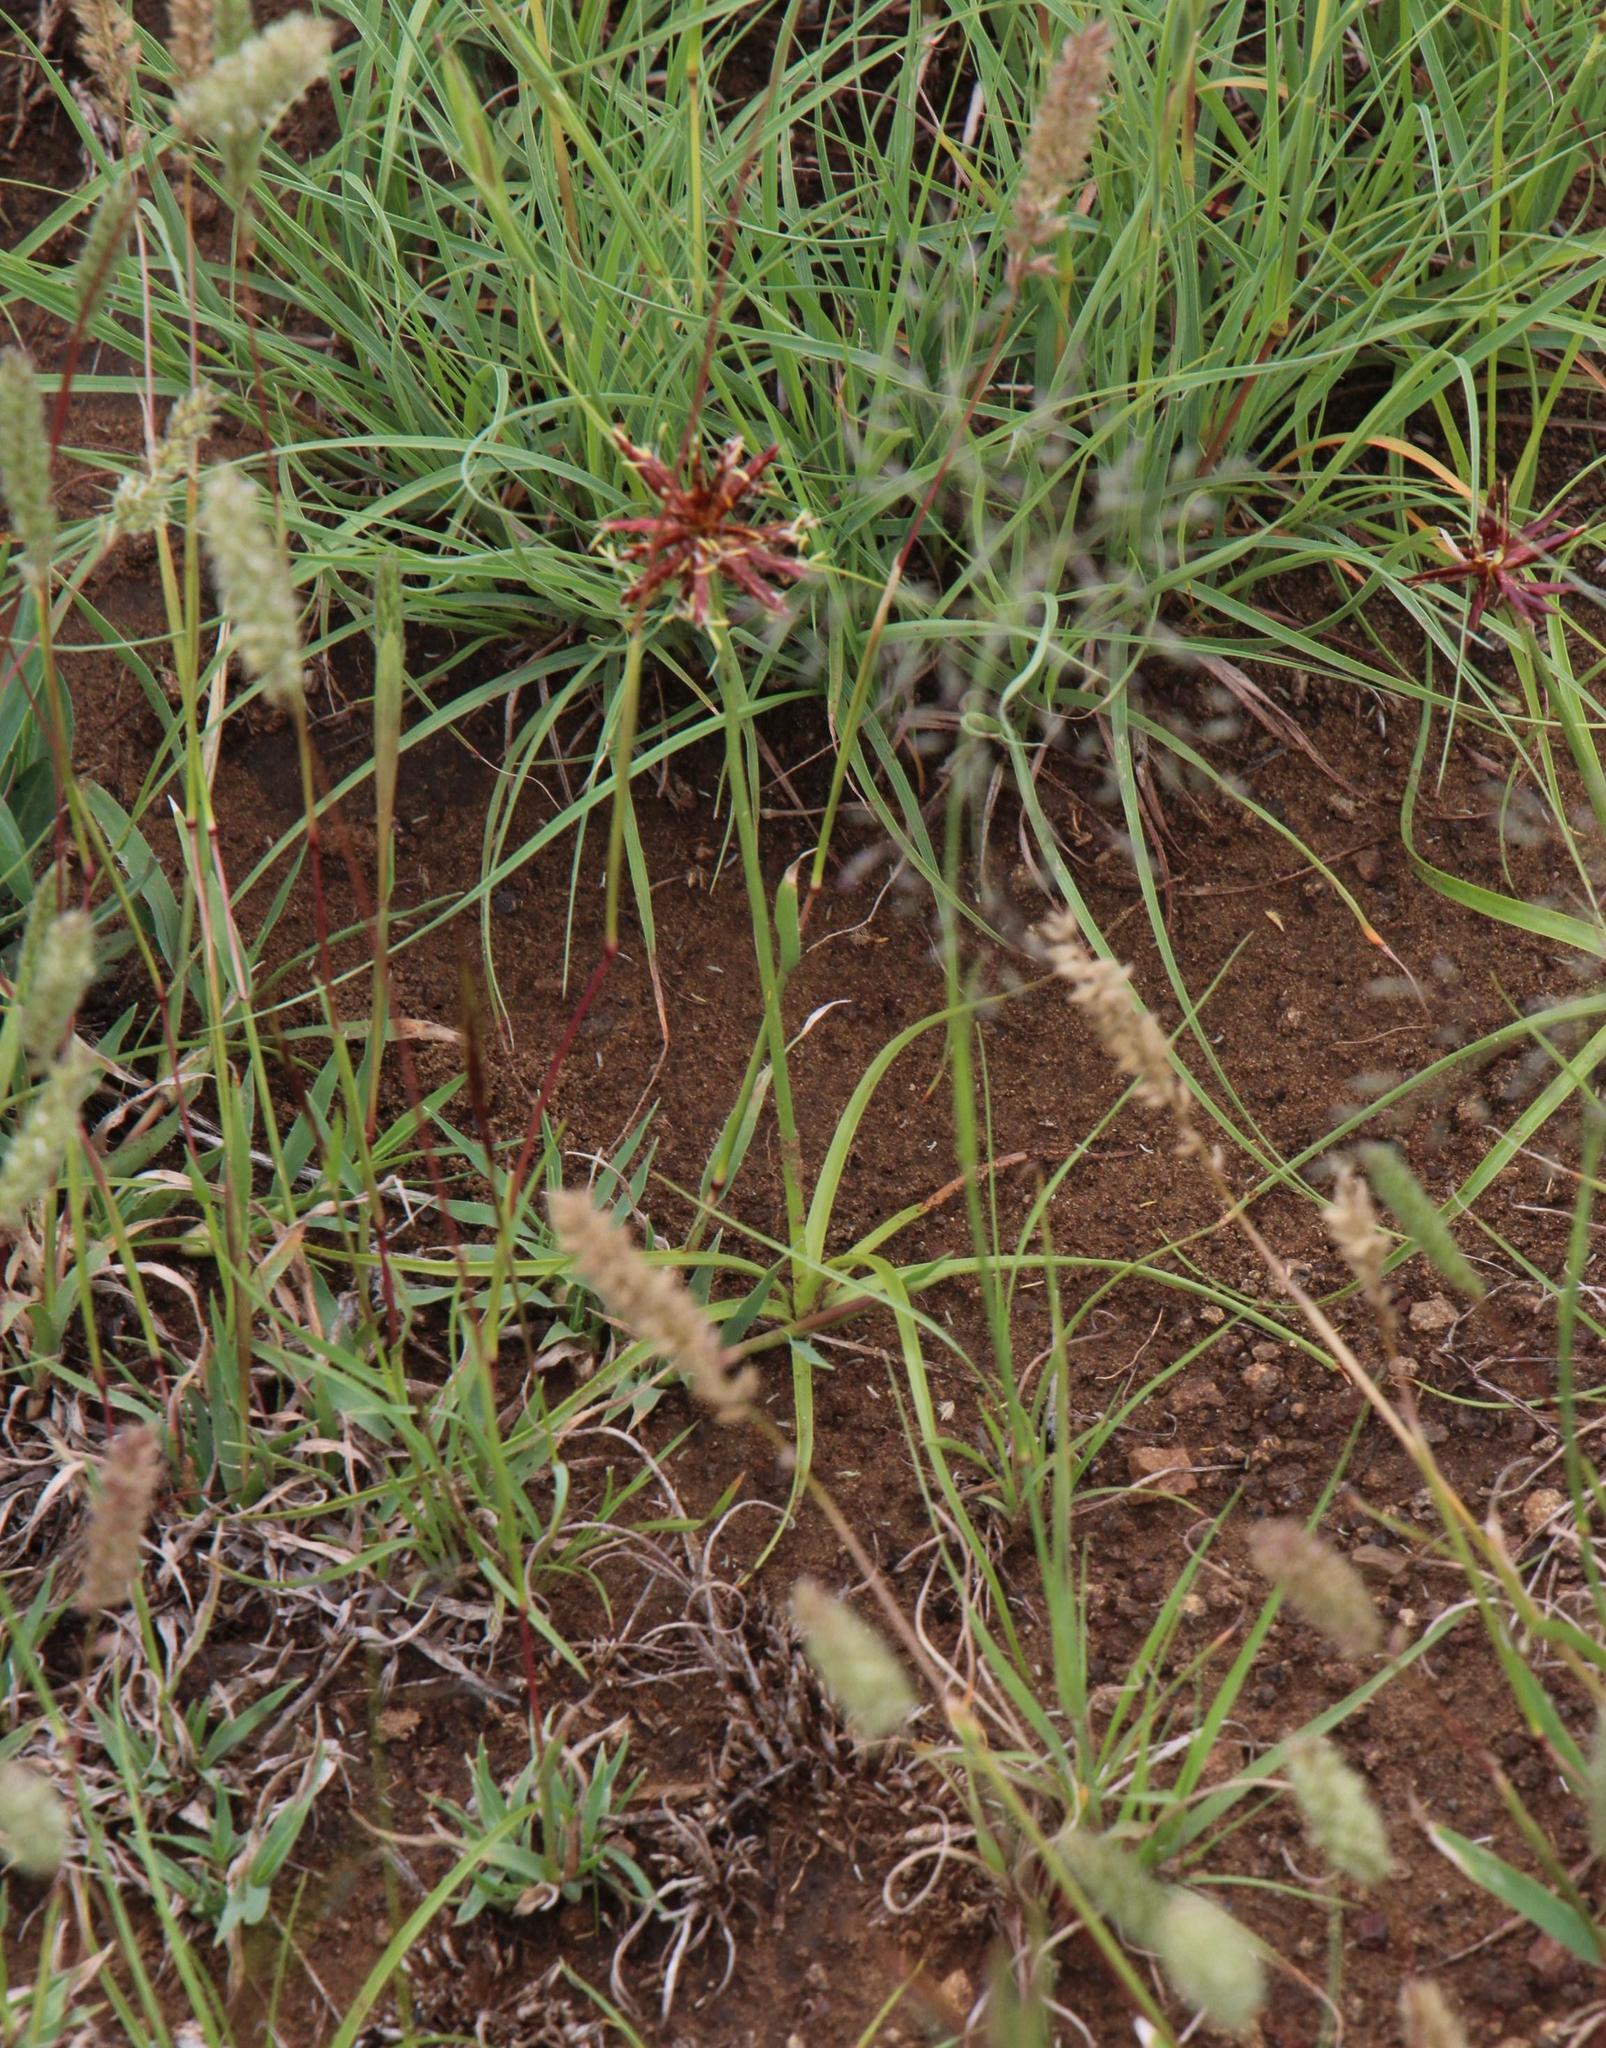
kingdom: Plantae
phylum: Tracheophyta
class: Liliopsida
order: Poales
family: Cyperaceae
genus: Cyperus
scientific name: Cyperus usitatus
